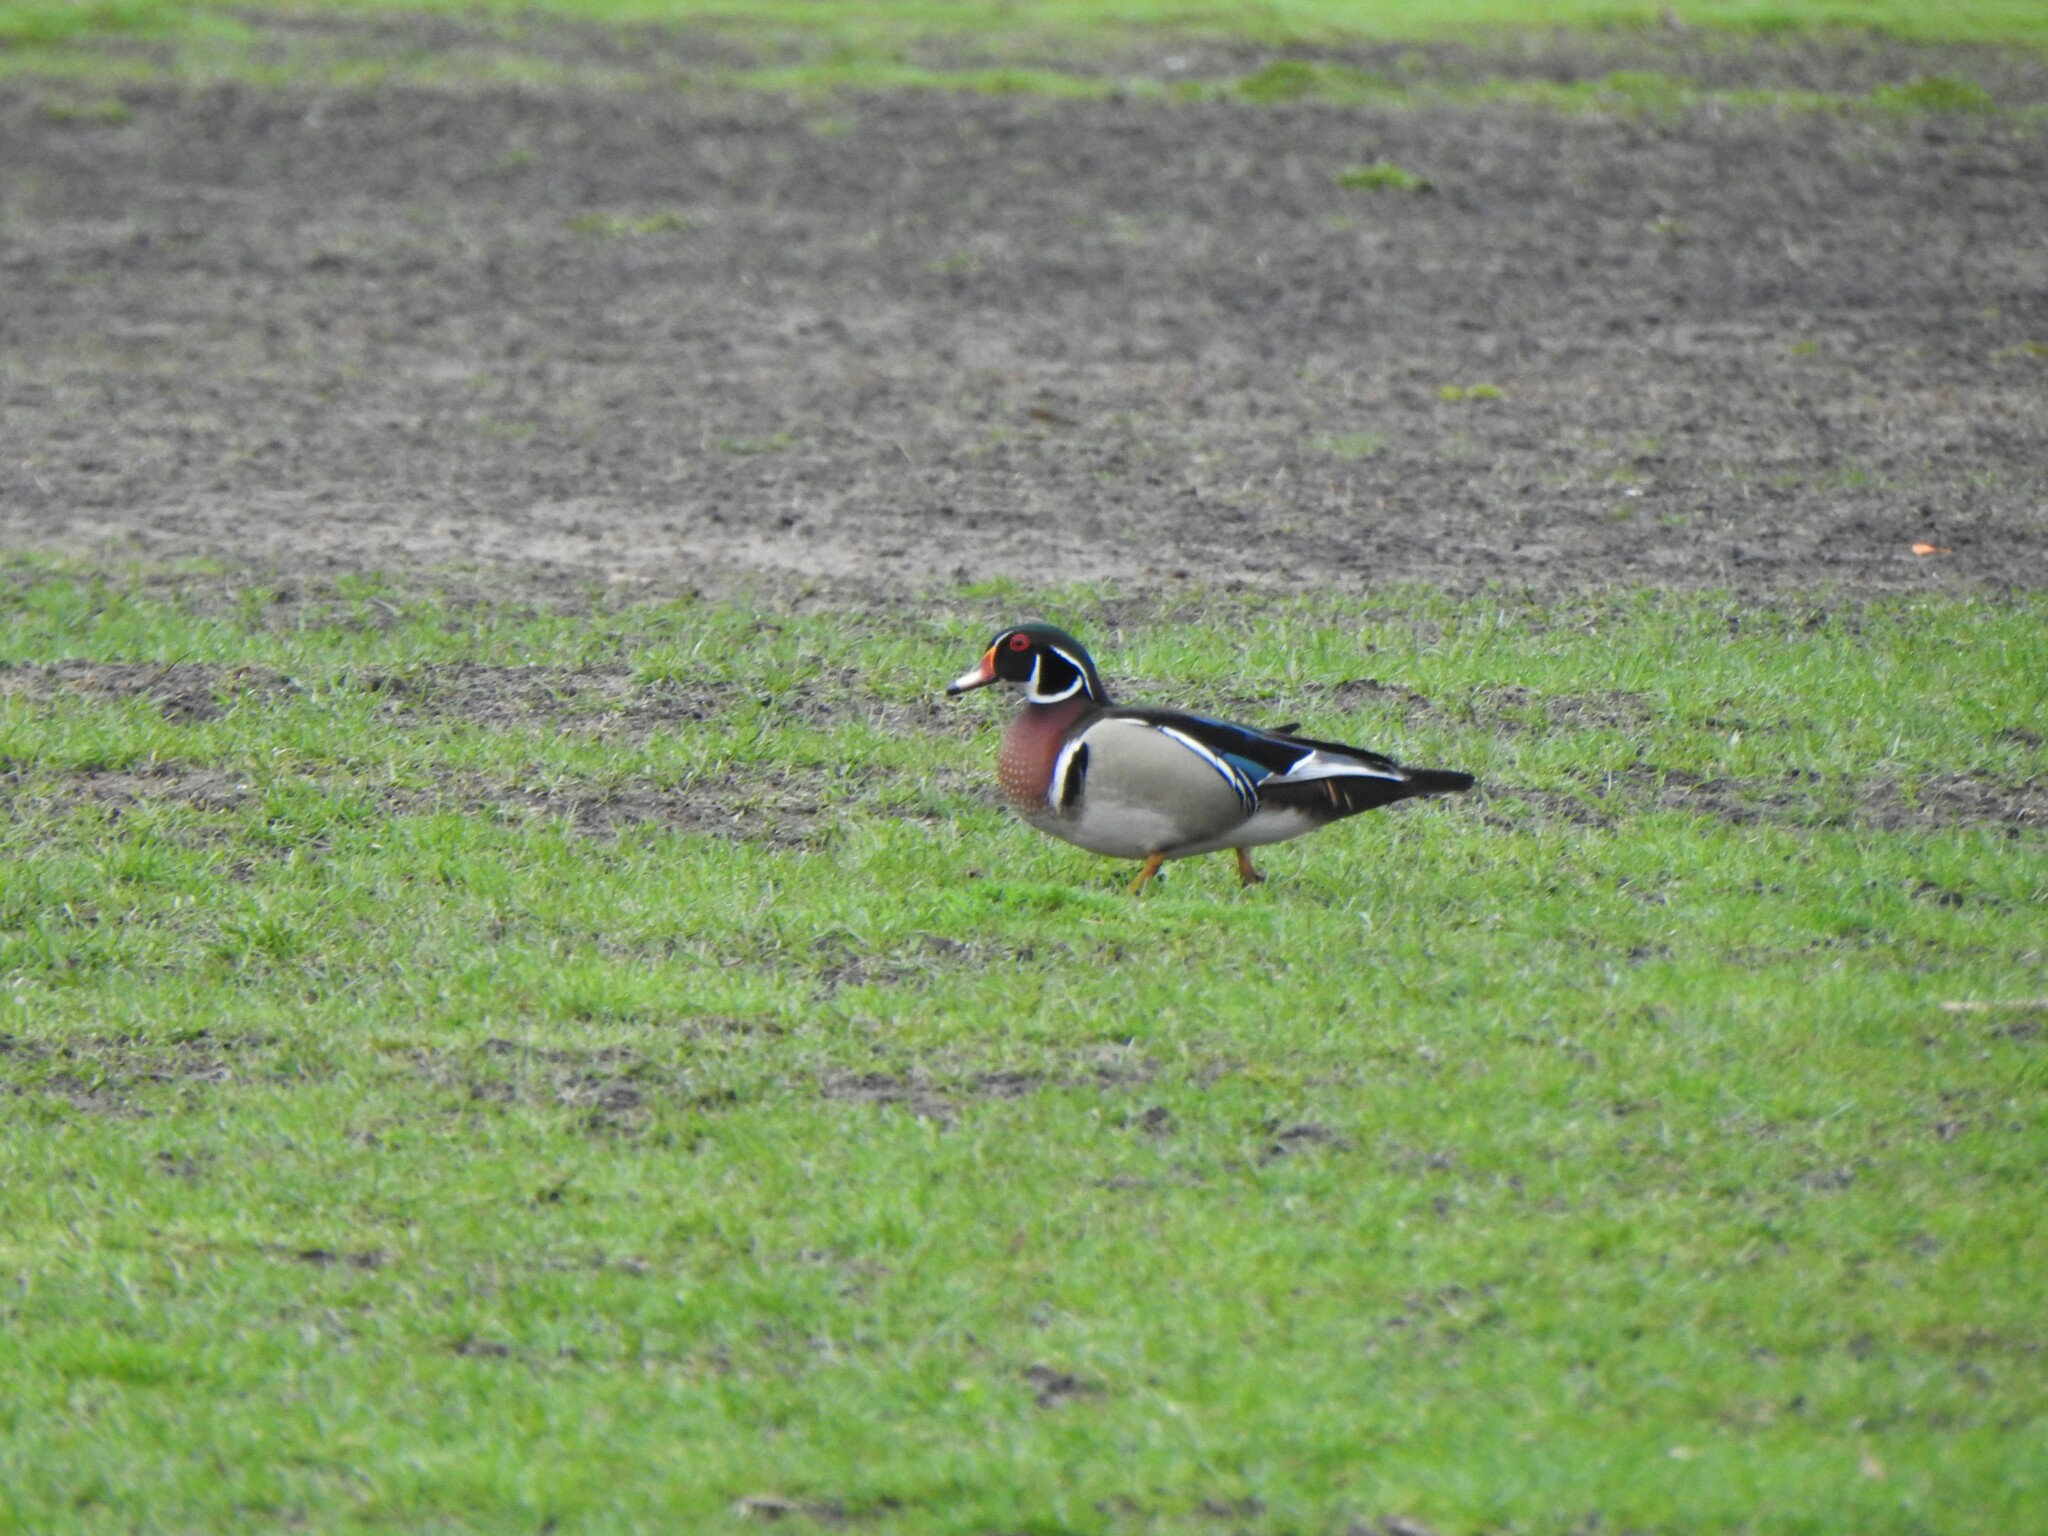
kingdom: Animalia
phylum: Chordata
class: Aves
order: Anseriformes
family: Anatidae
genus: Aix
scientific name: Aix sponsa
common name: Wood duck
